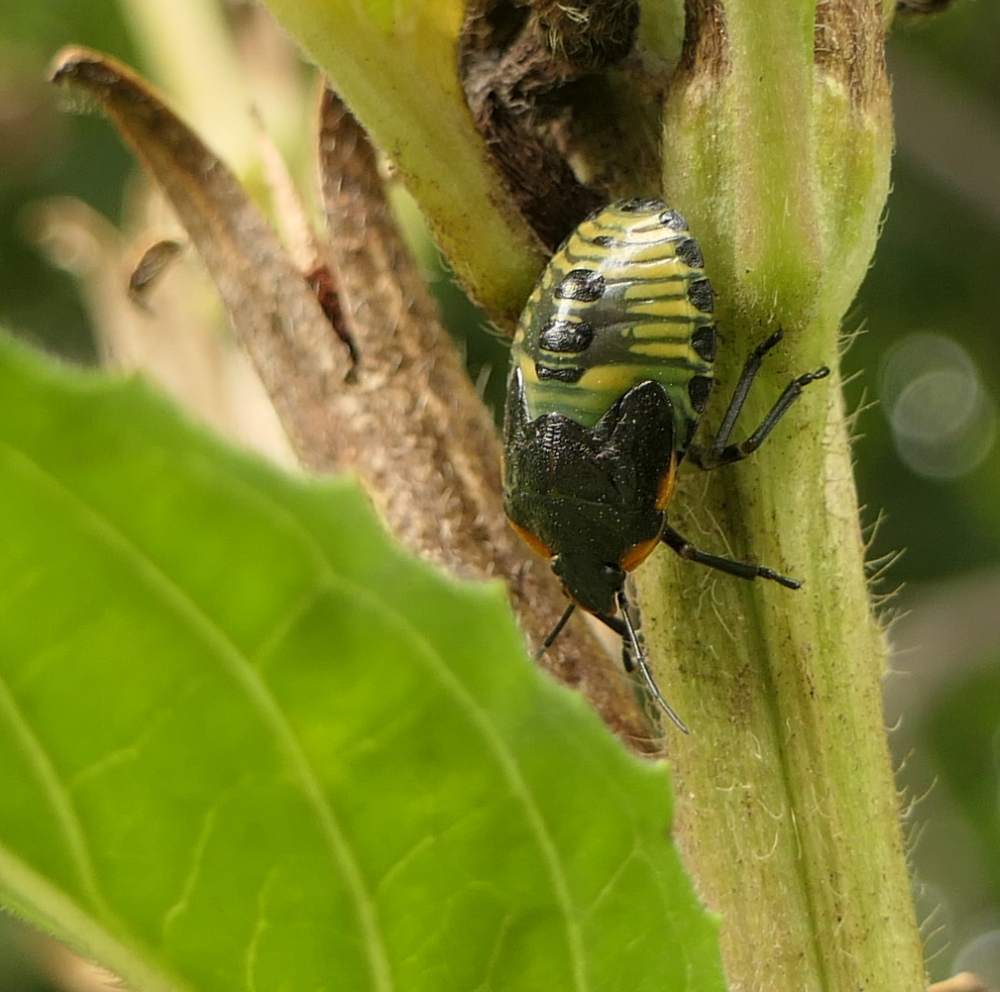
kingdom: Animalia
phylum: Arthropoda
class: Insecta
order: Hemiptera
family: Pentatomidae
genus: Chinavia
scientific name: Chinavia hilaris
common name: Green stink bug
